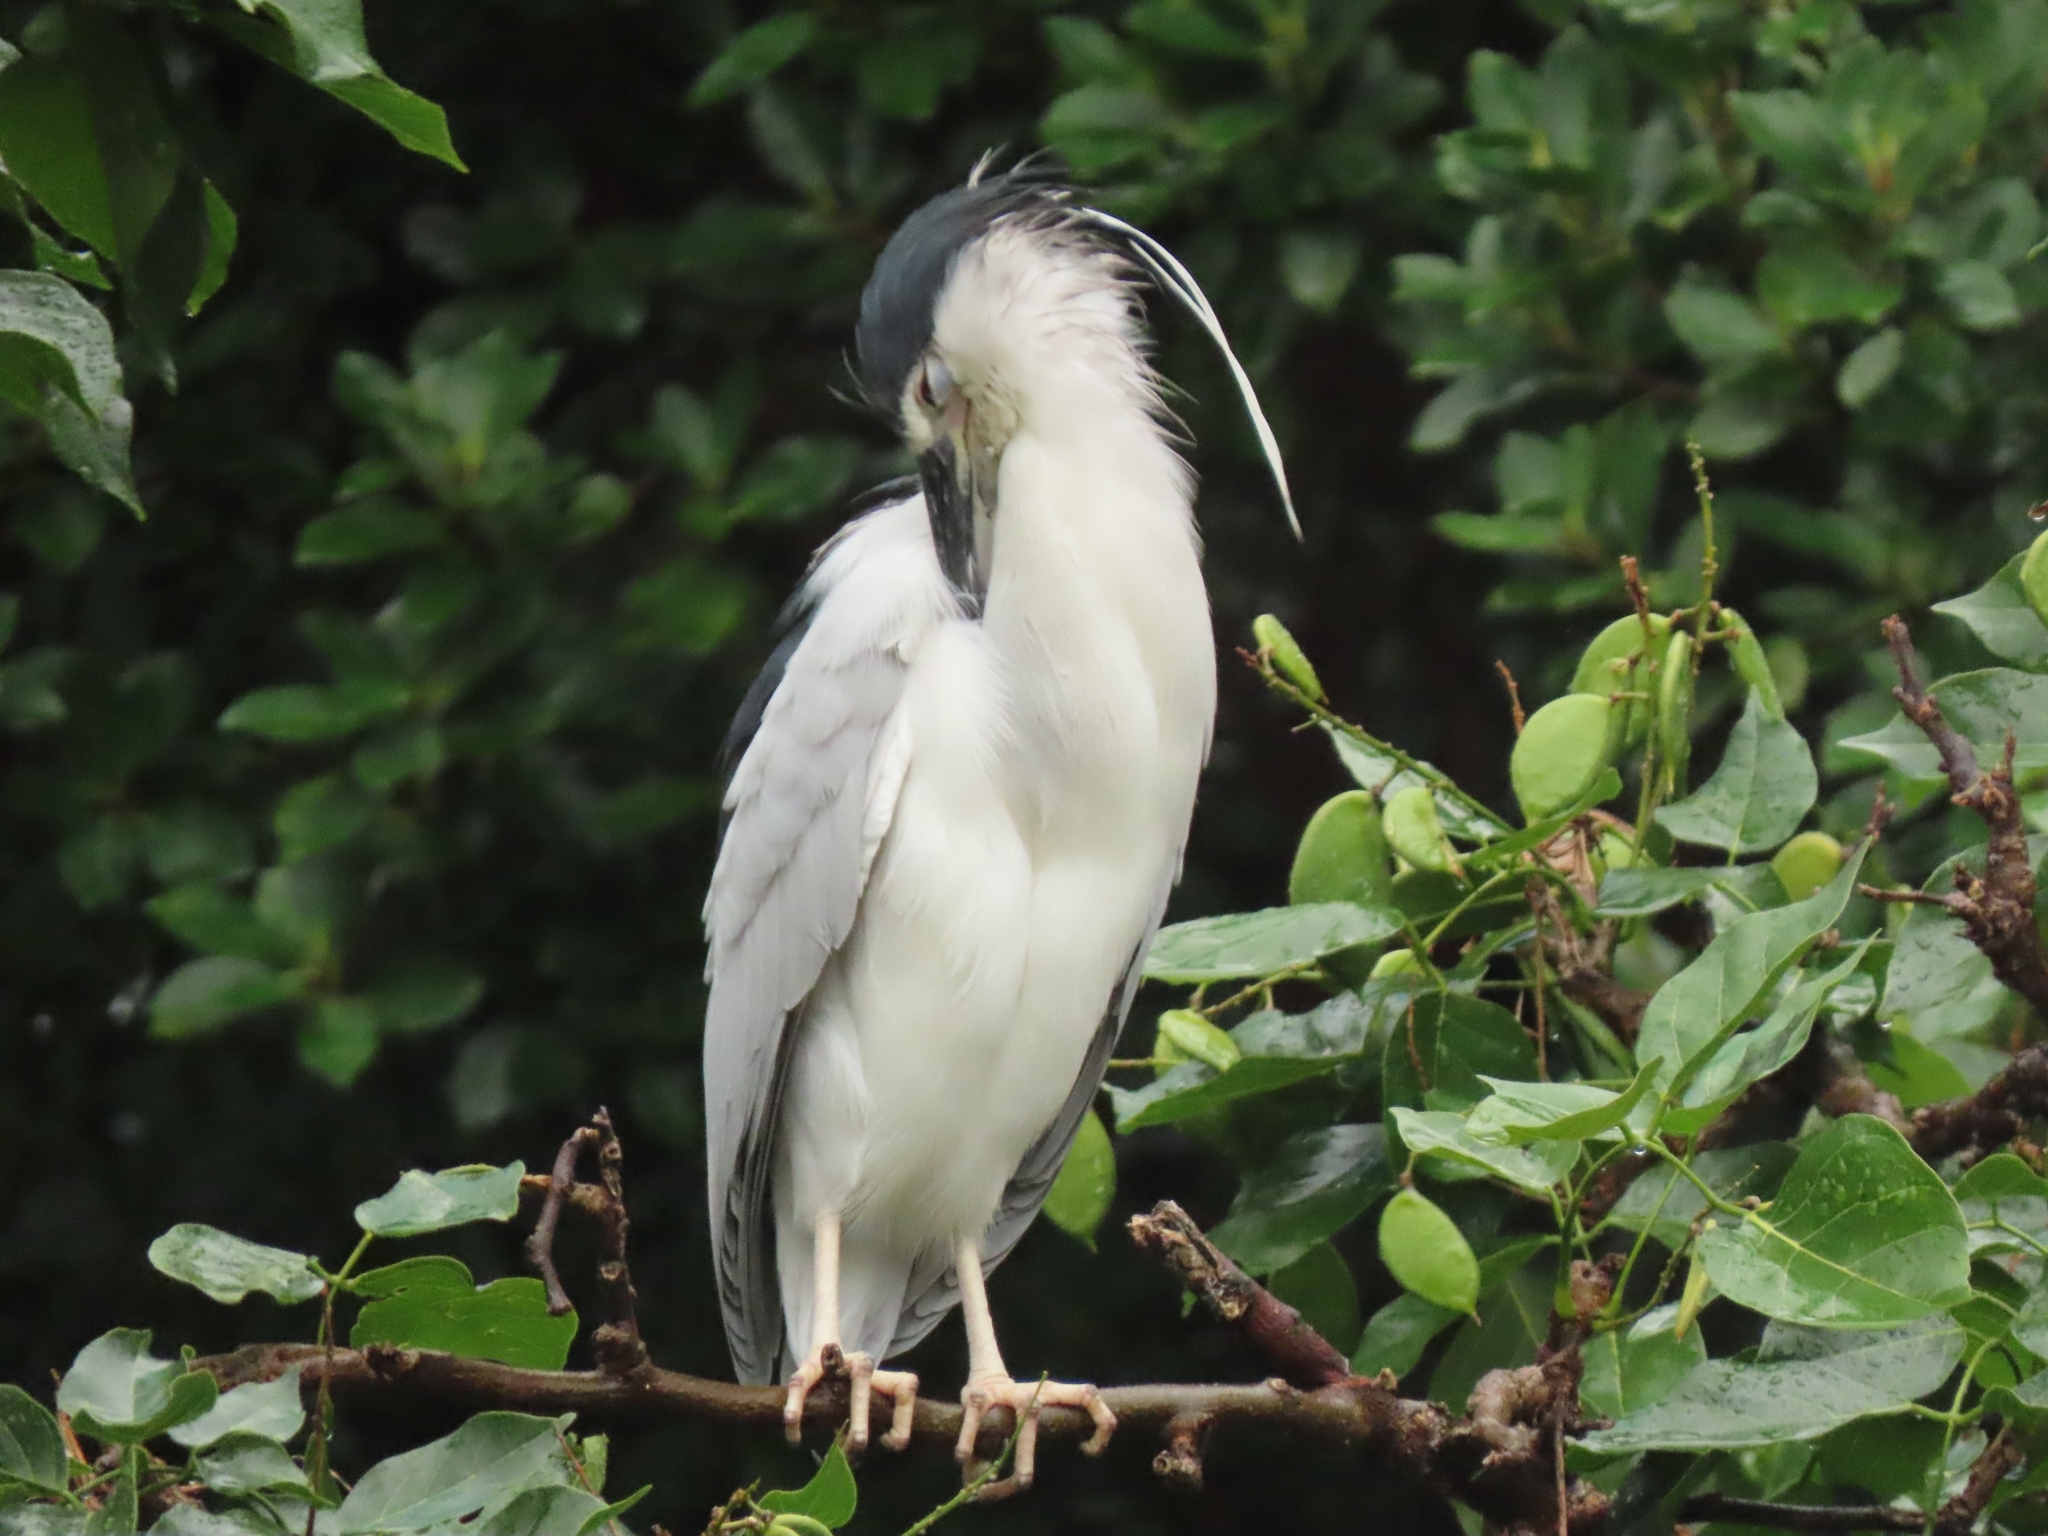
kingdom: Animalia
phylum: Chordata
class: Aves
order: Pelecaniformes
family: Ardeidae
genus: Nycticorax
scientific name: Nycticorax nycticorax
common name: Black-crowned night heron
